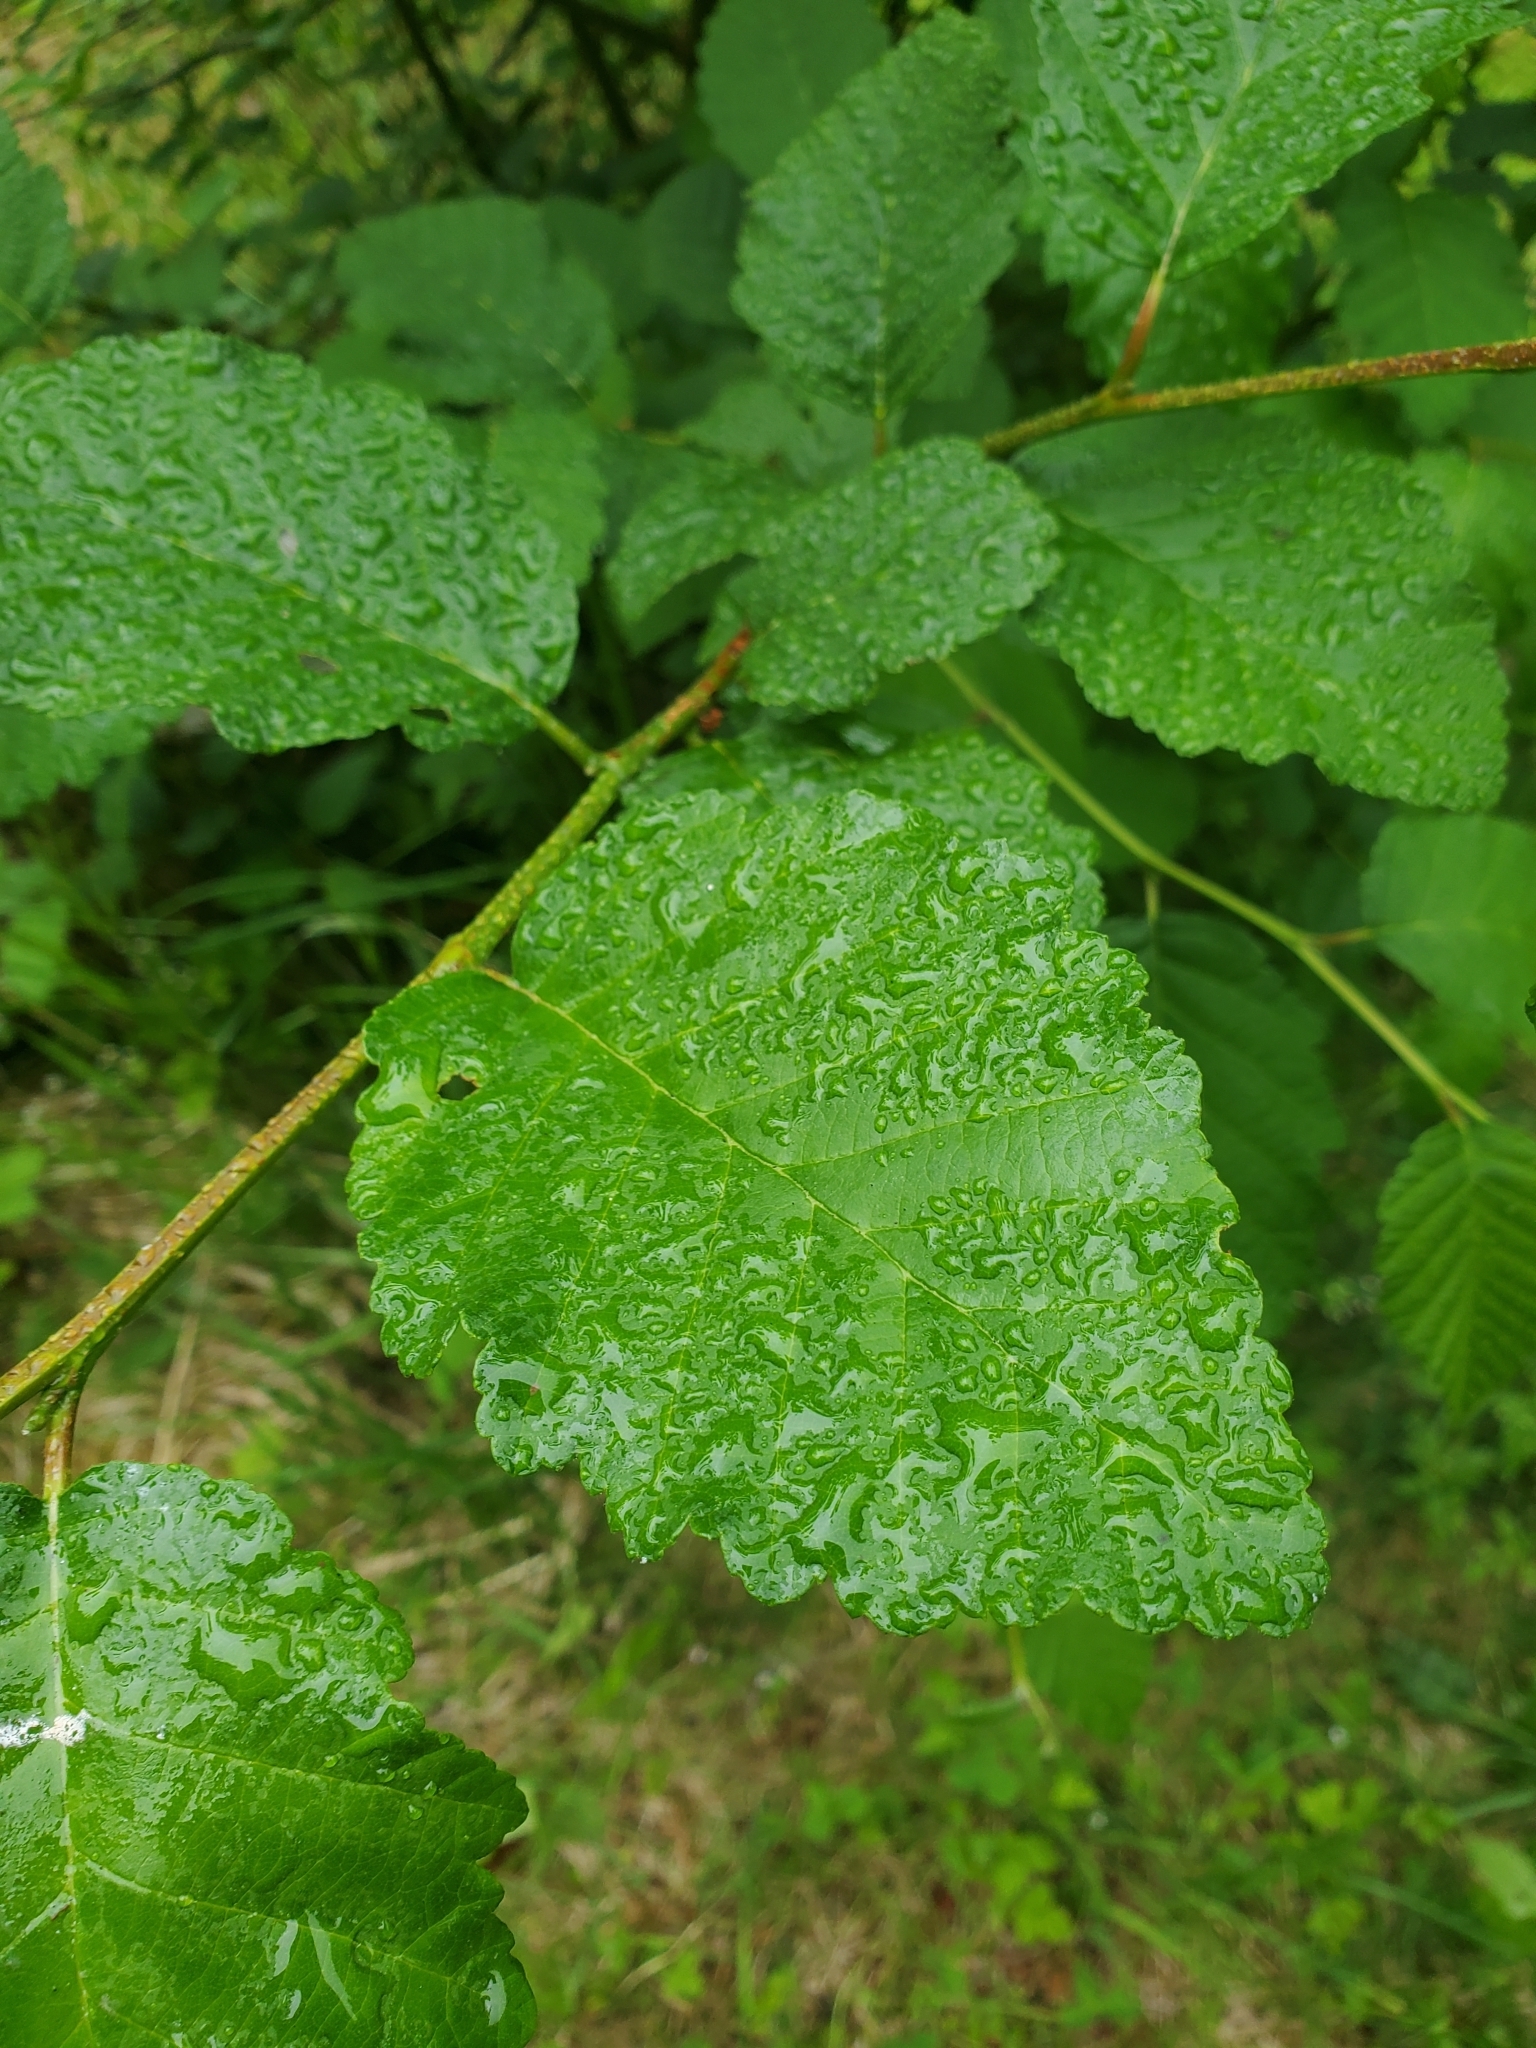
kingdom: Plantae
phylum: Tracheophyta
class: Magnoliopsida
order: Fagales
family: Betulaceae
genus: Alnus
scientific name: Alnus rubra
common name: Red alder
